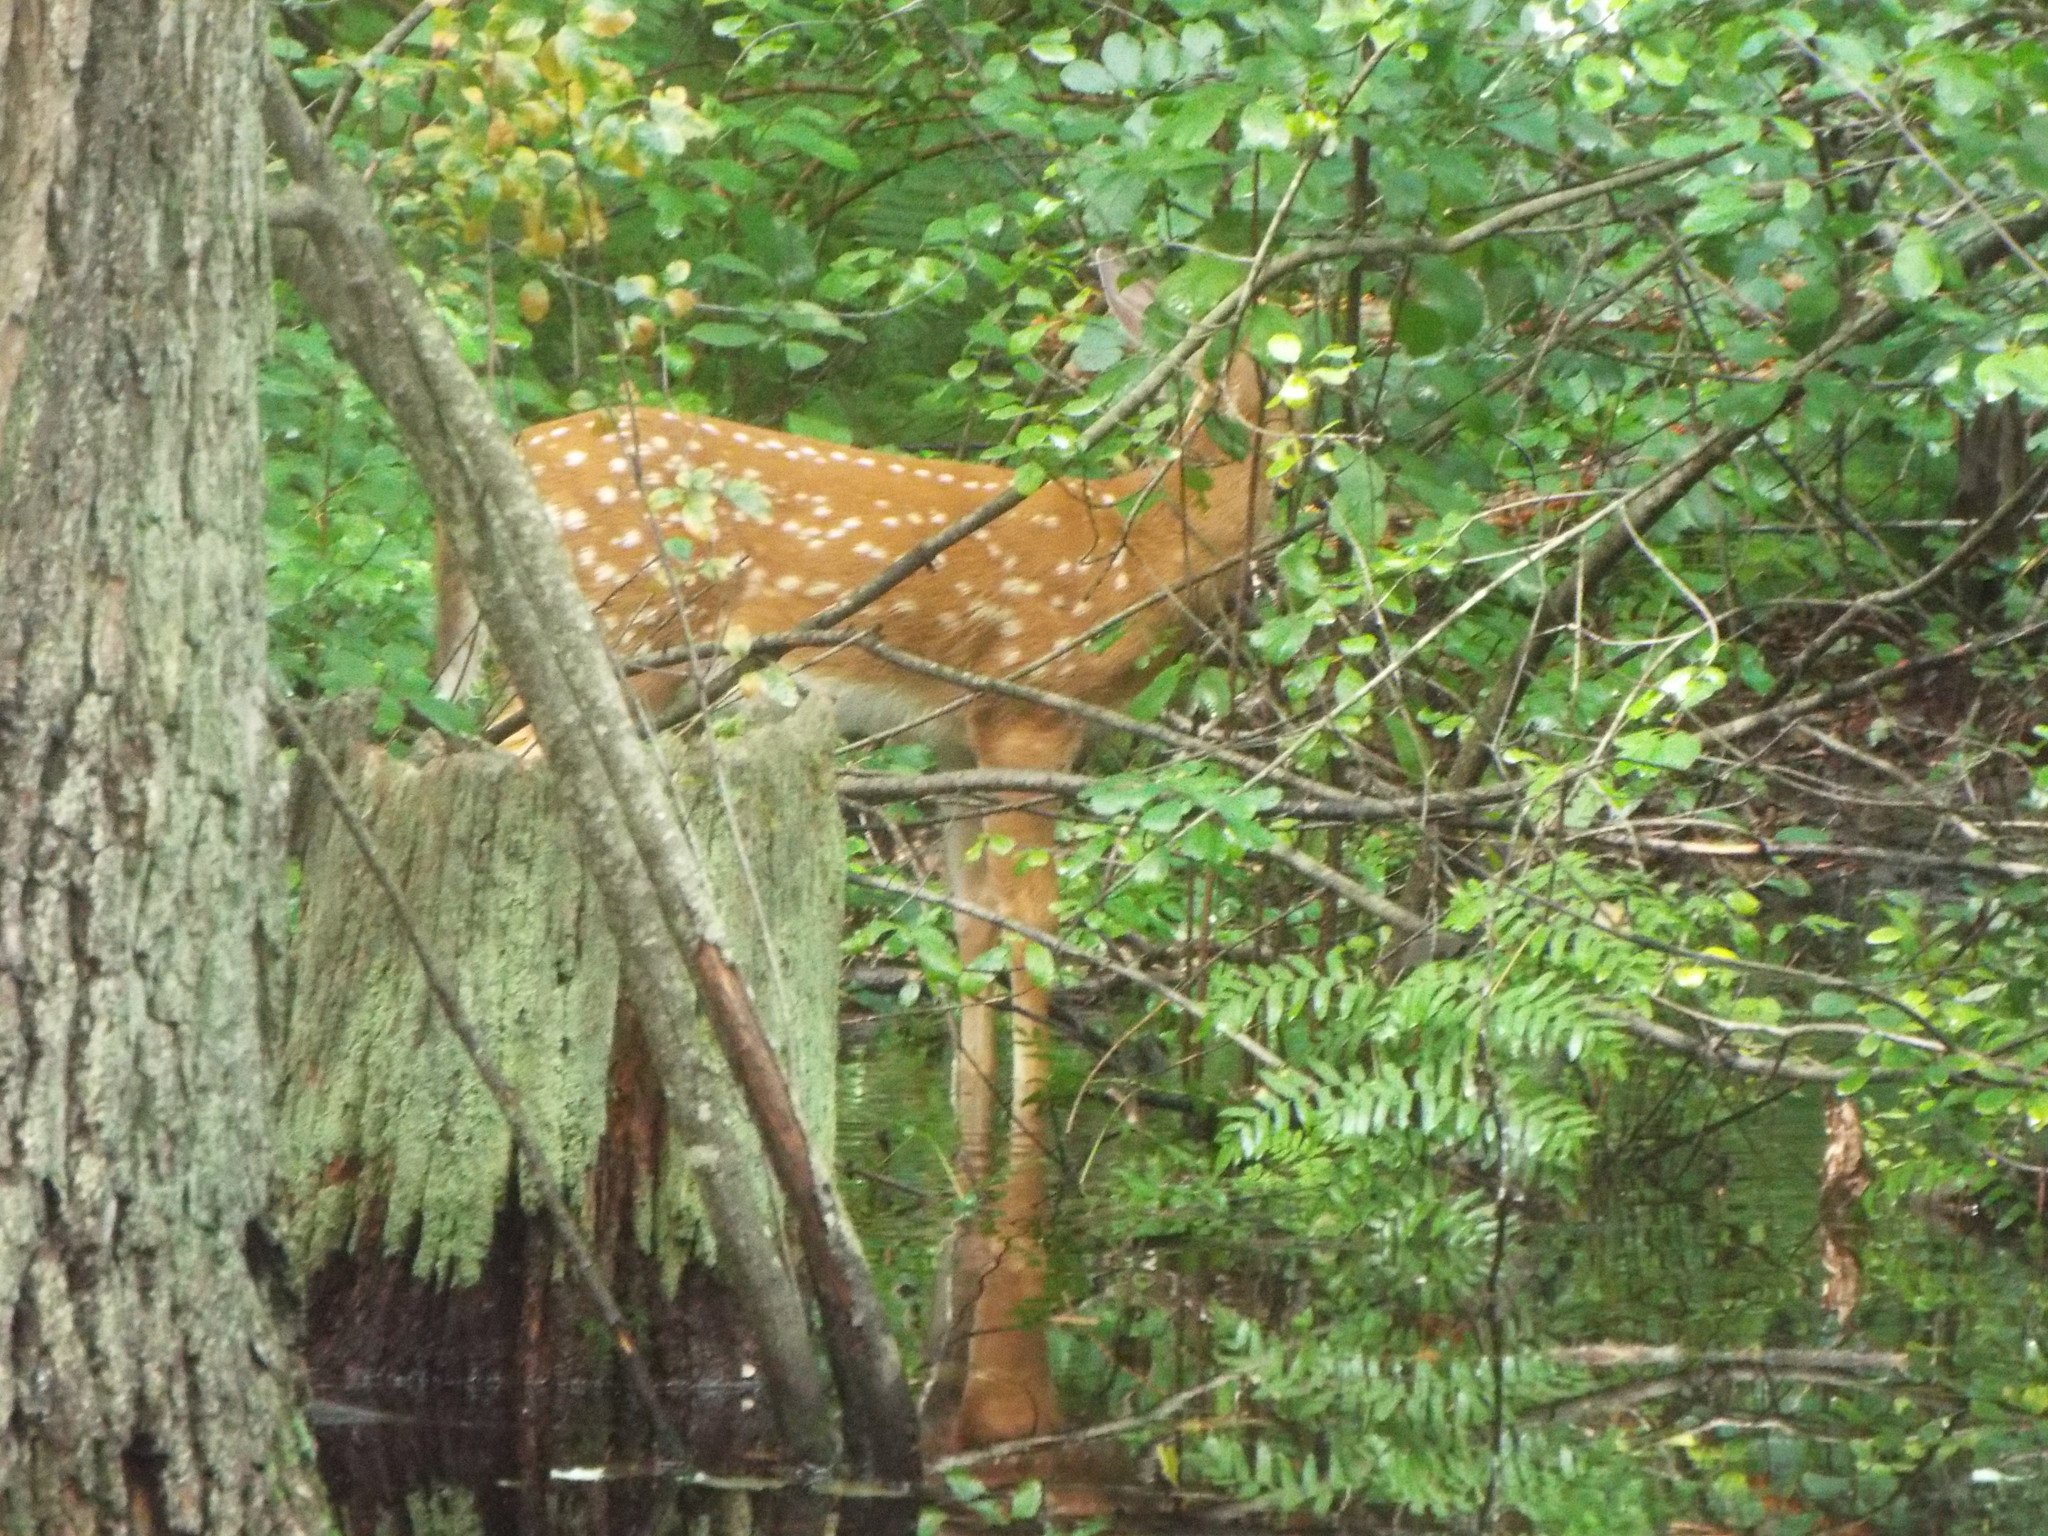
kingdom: Animalia
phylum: Chordata
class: Mammalia
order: Artiodactyla
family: Cervidae
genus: Odocoileus
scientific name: Odocoileus virginianus
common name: White-tailed deer
